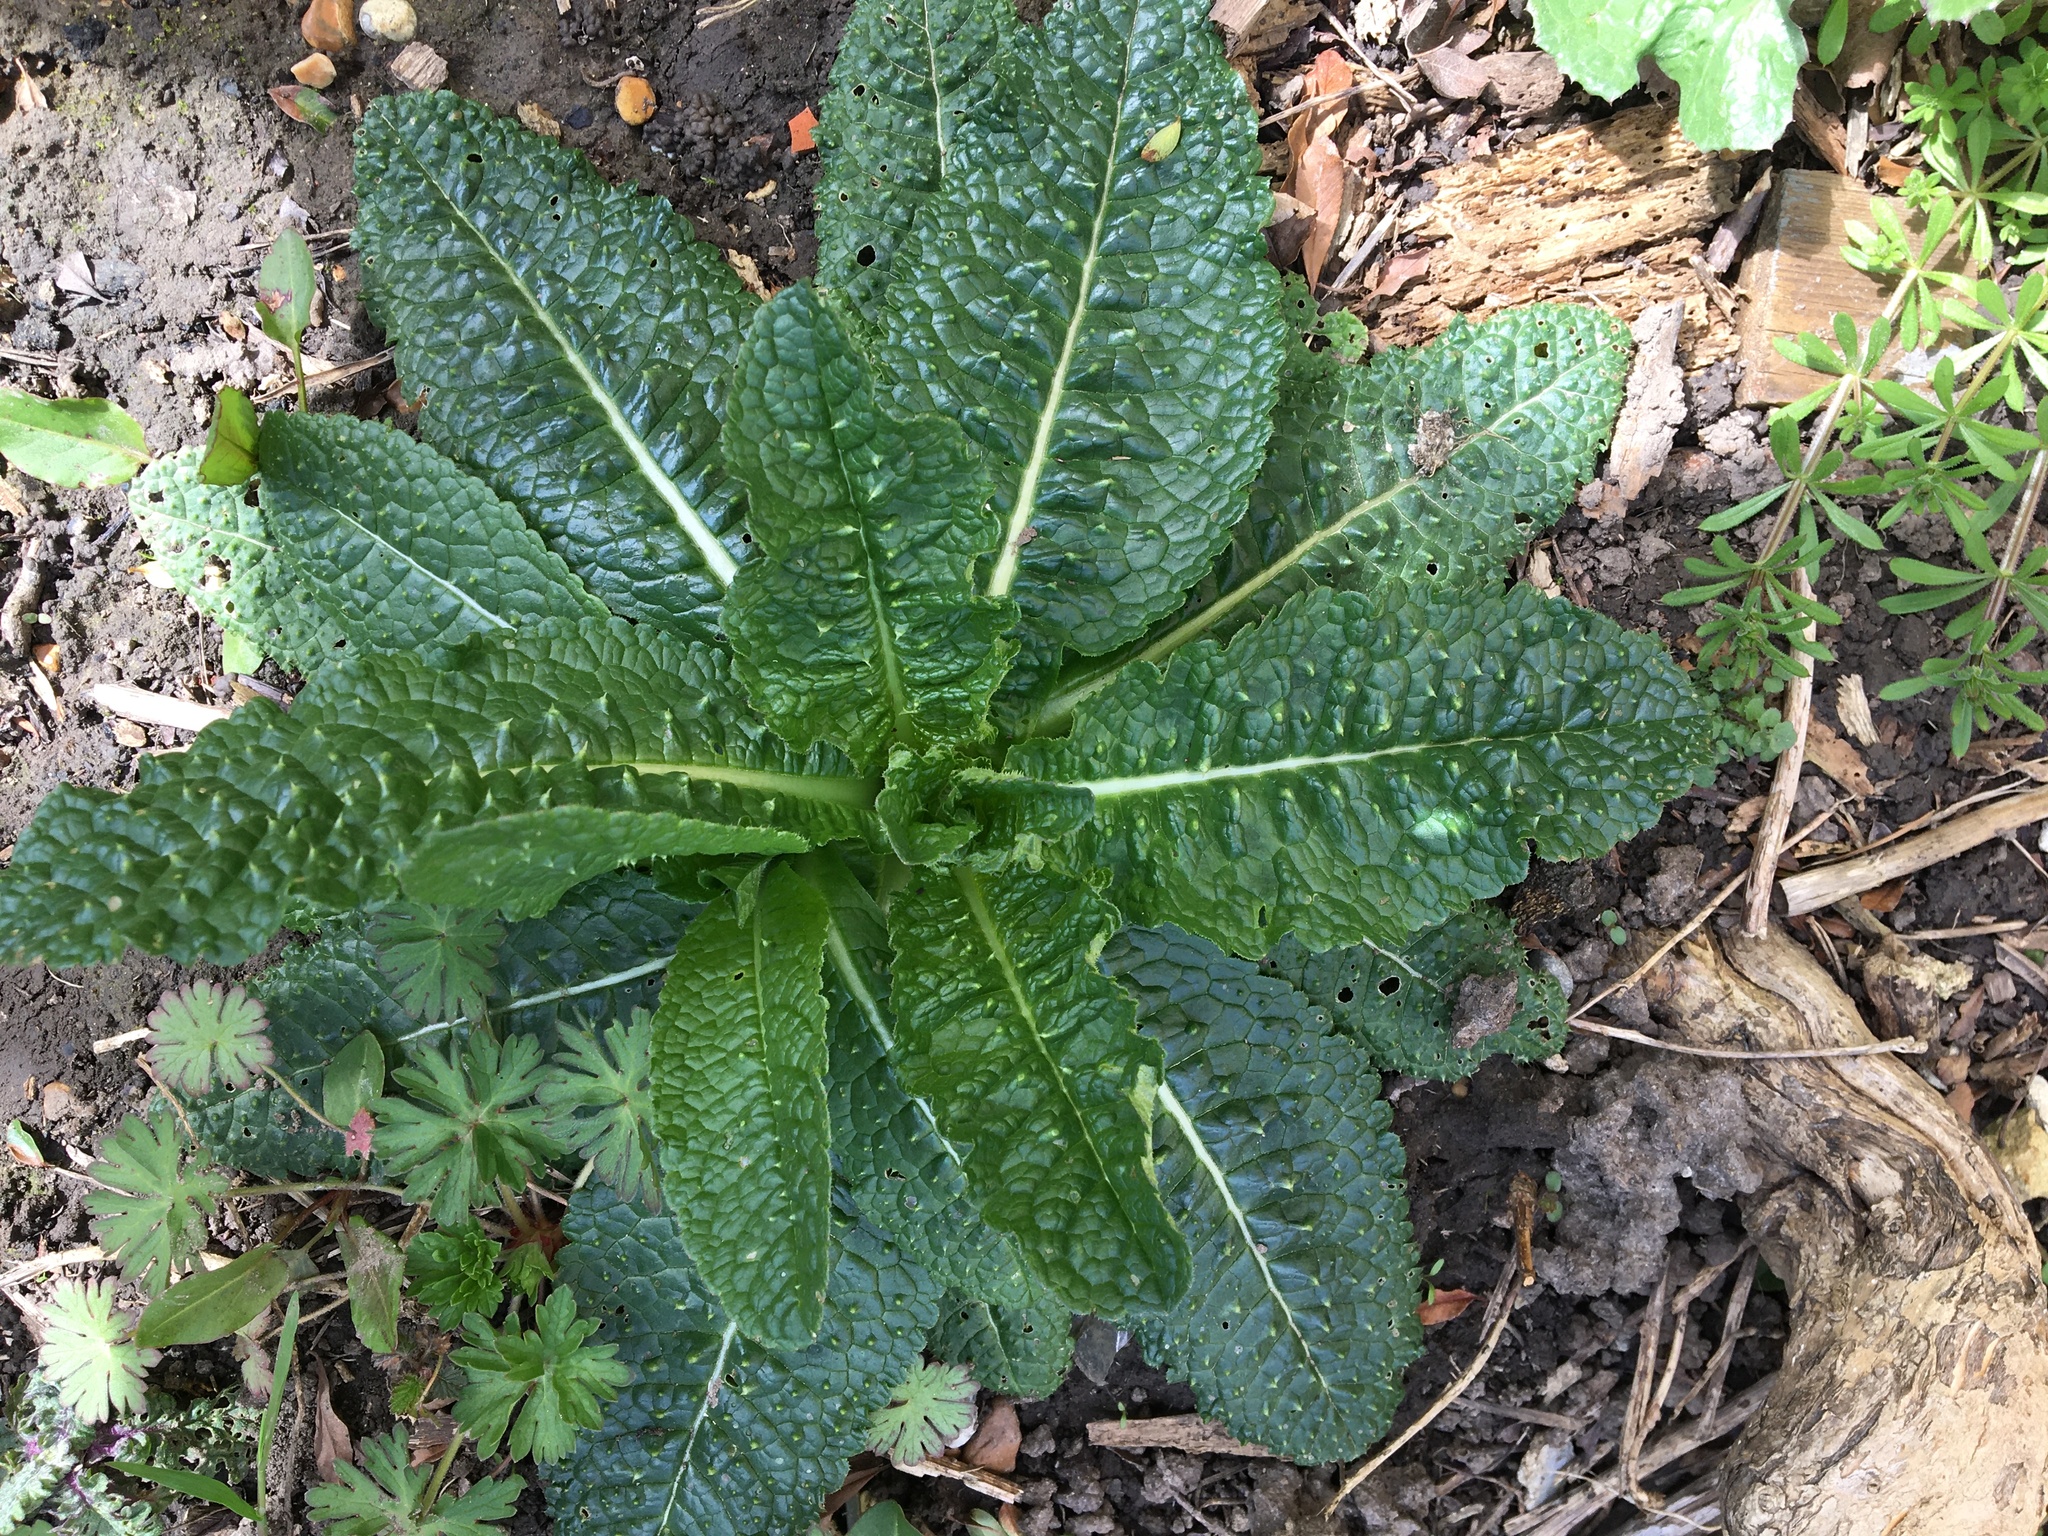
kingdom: Plantae
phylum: Tracheophyta
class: Magnoliopsida
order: Dipsacales
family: Caprifoliaceae
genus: Dipsacus
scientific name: Dipsacus fullonum
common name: Teasel
